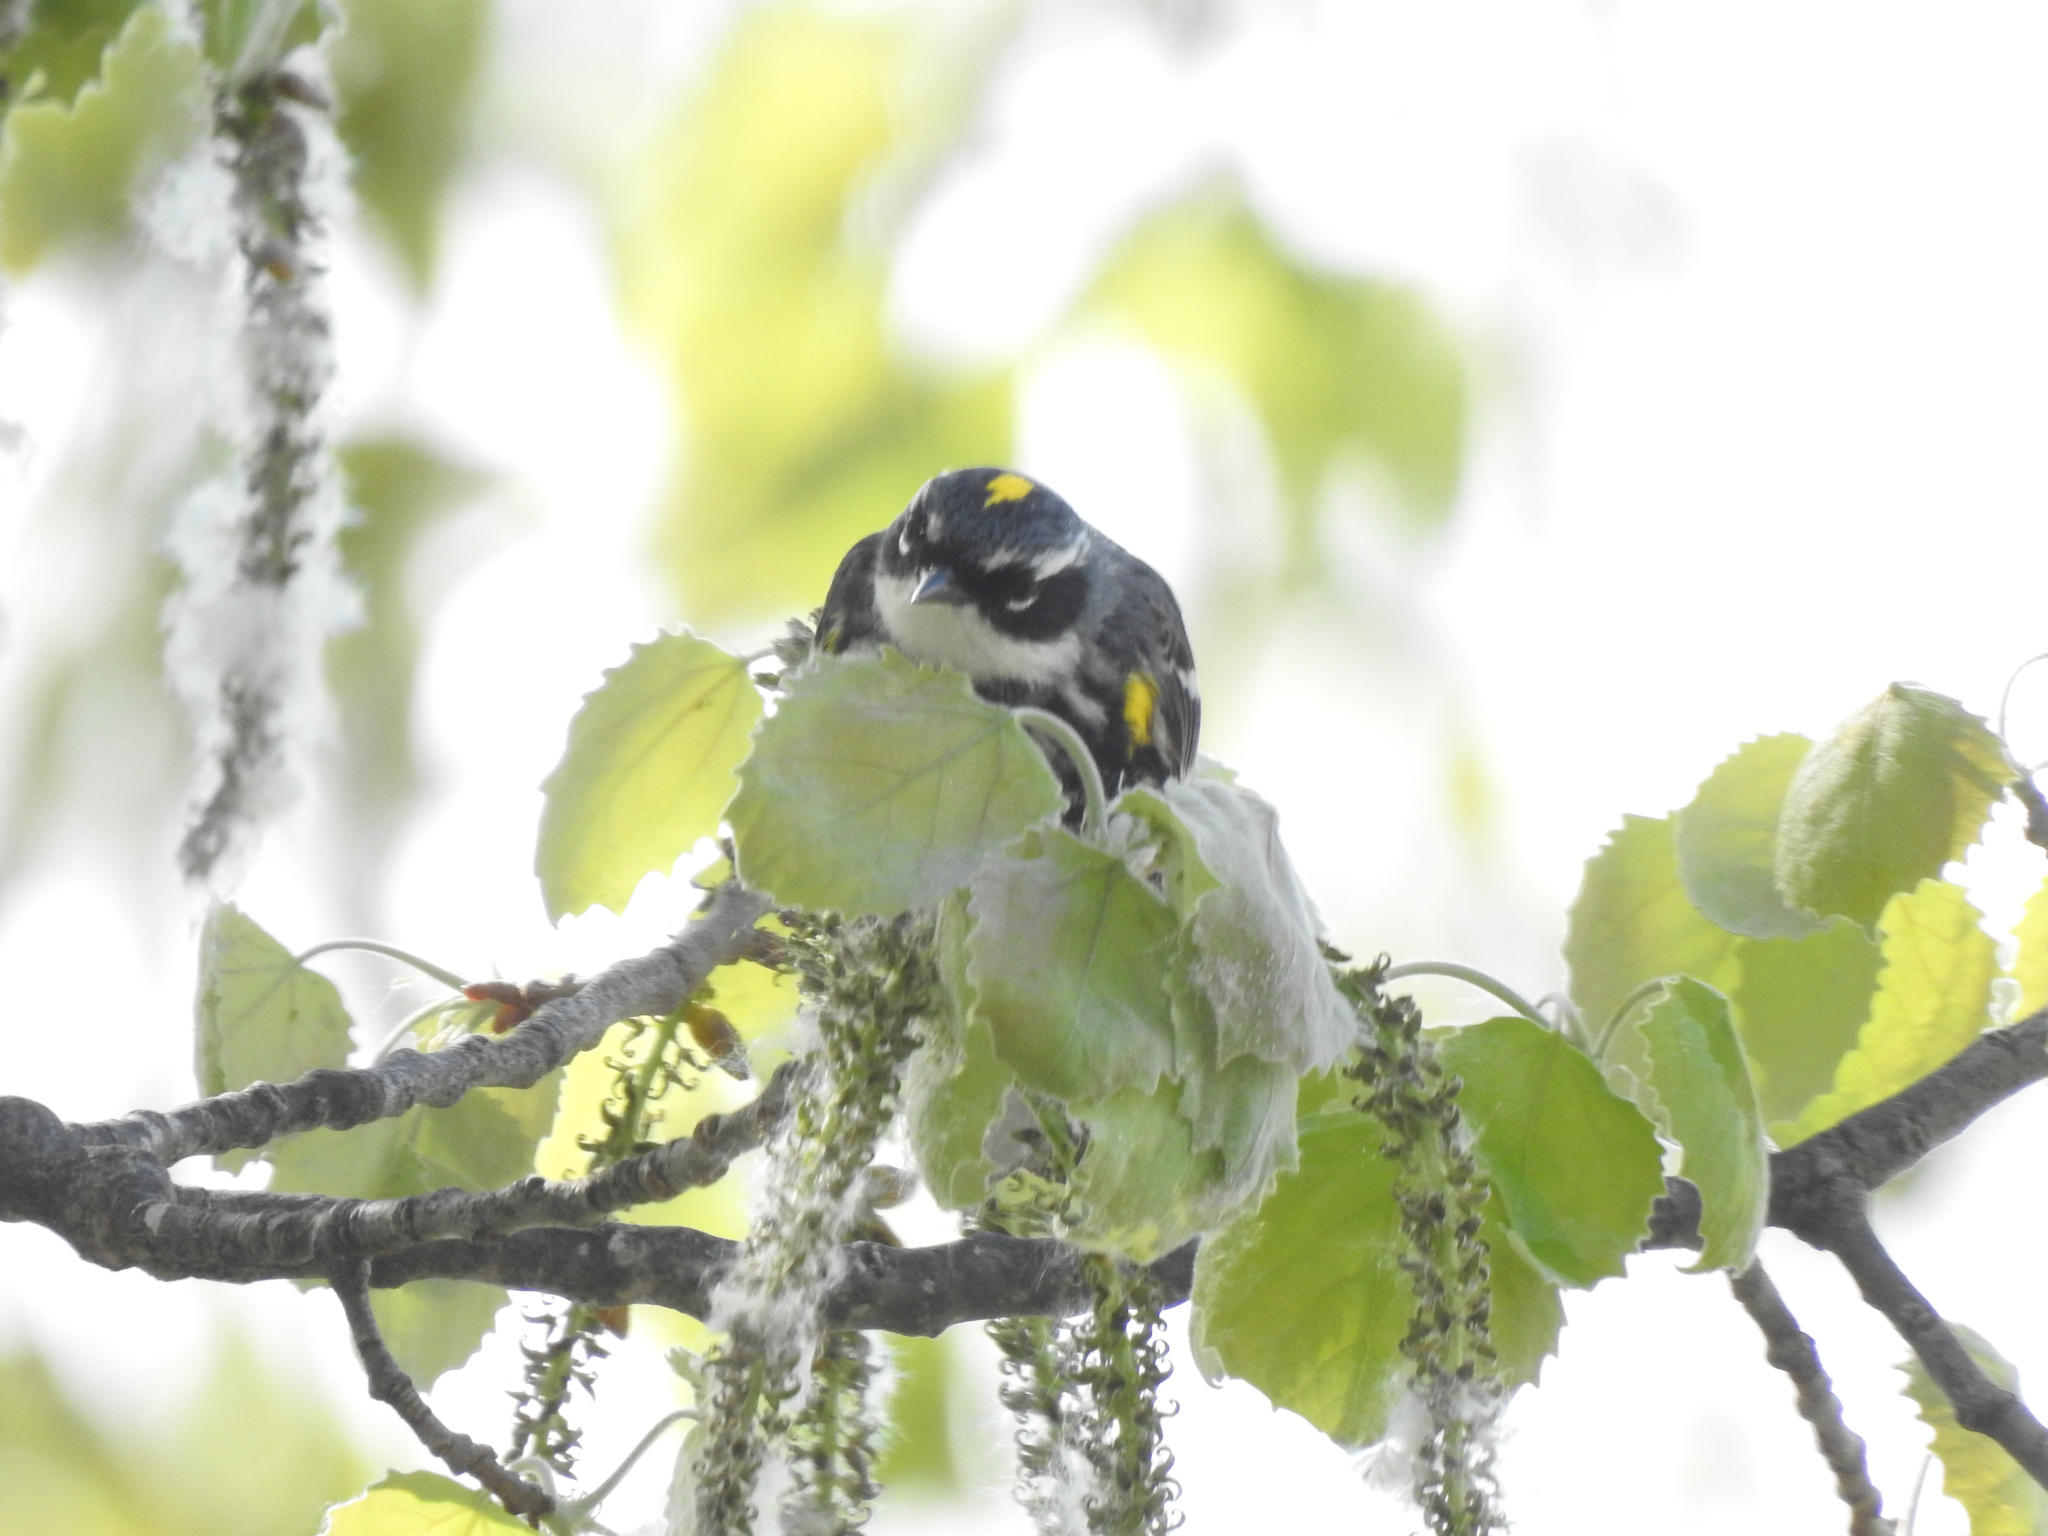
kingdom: Animalia
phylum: Chordata
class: Aves
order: Passeriformes
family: Parulidae
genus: Setophaga
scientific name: Setophaga coronata
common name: Myrtle warbler
